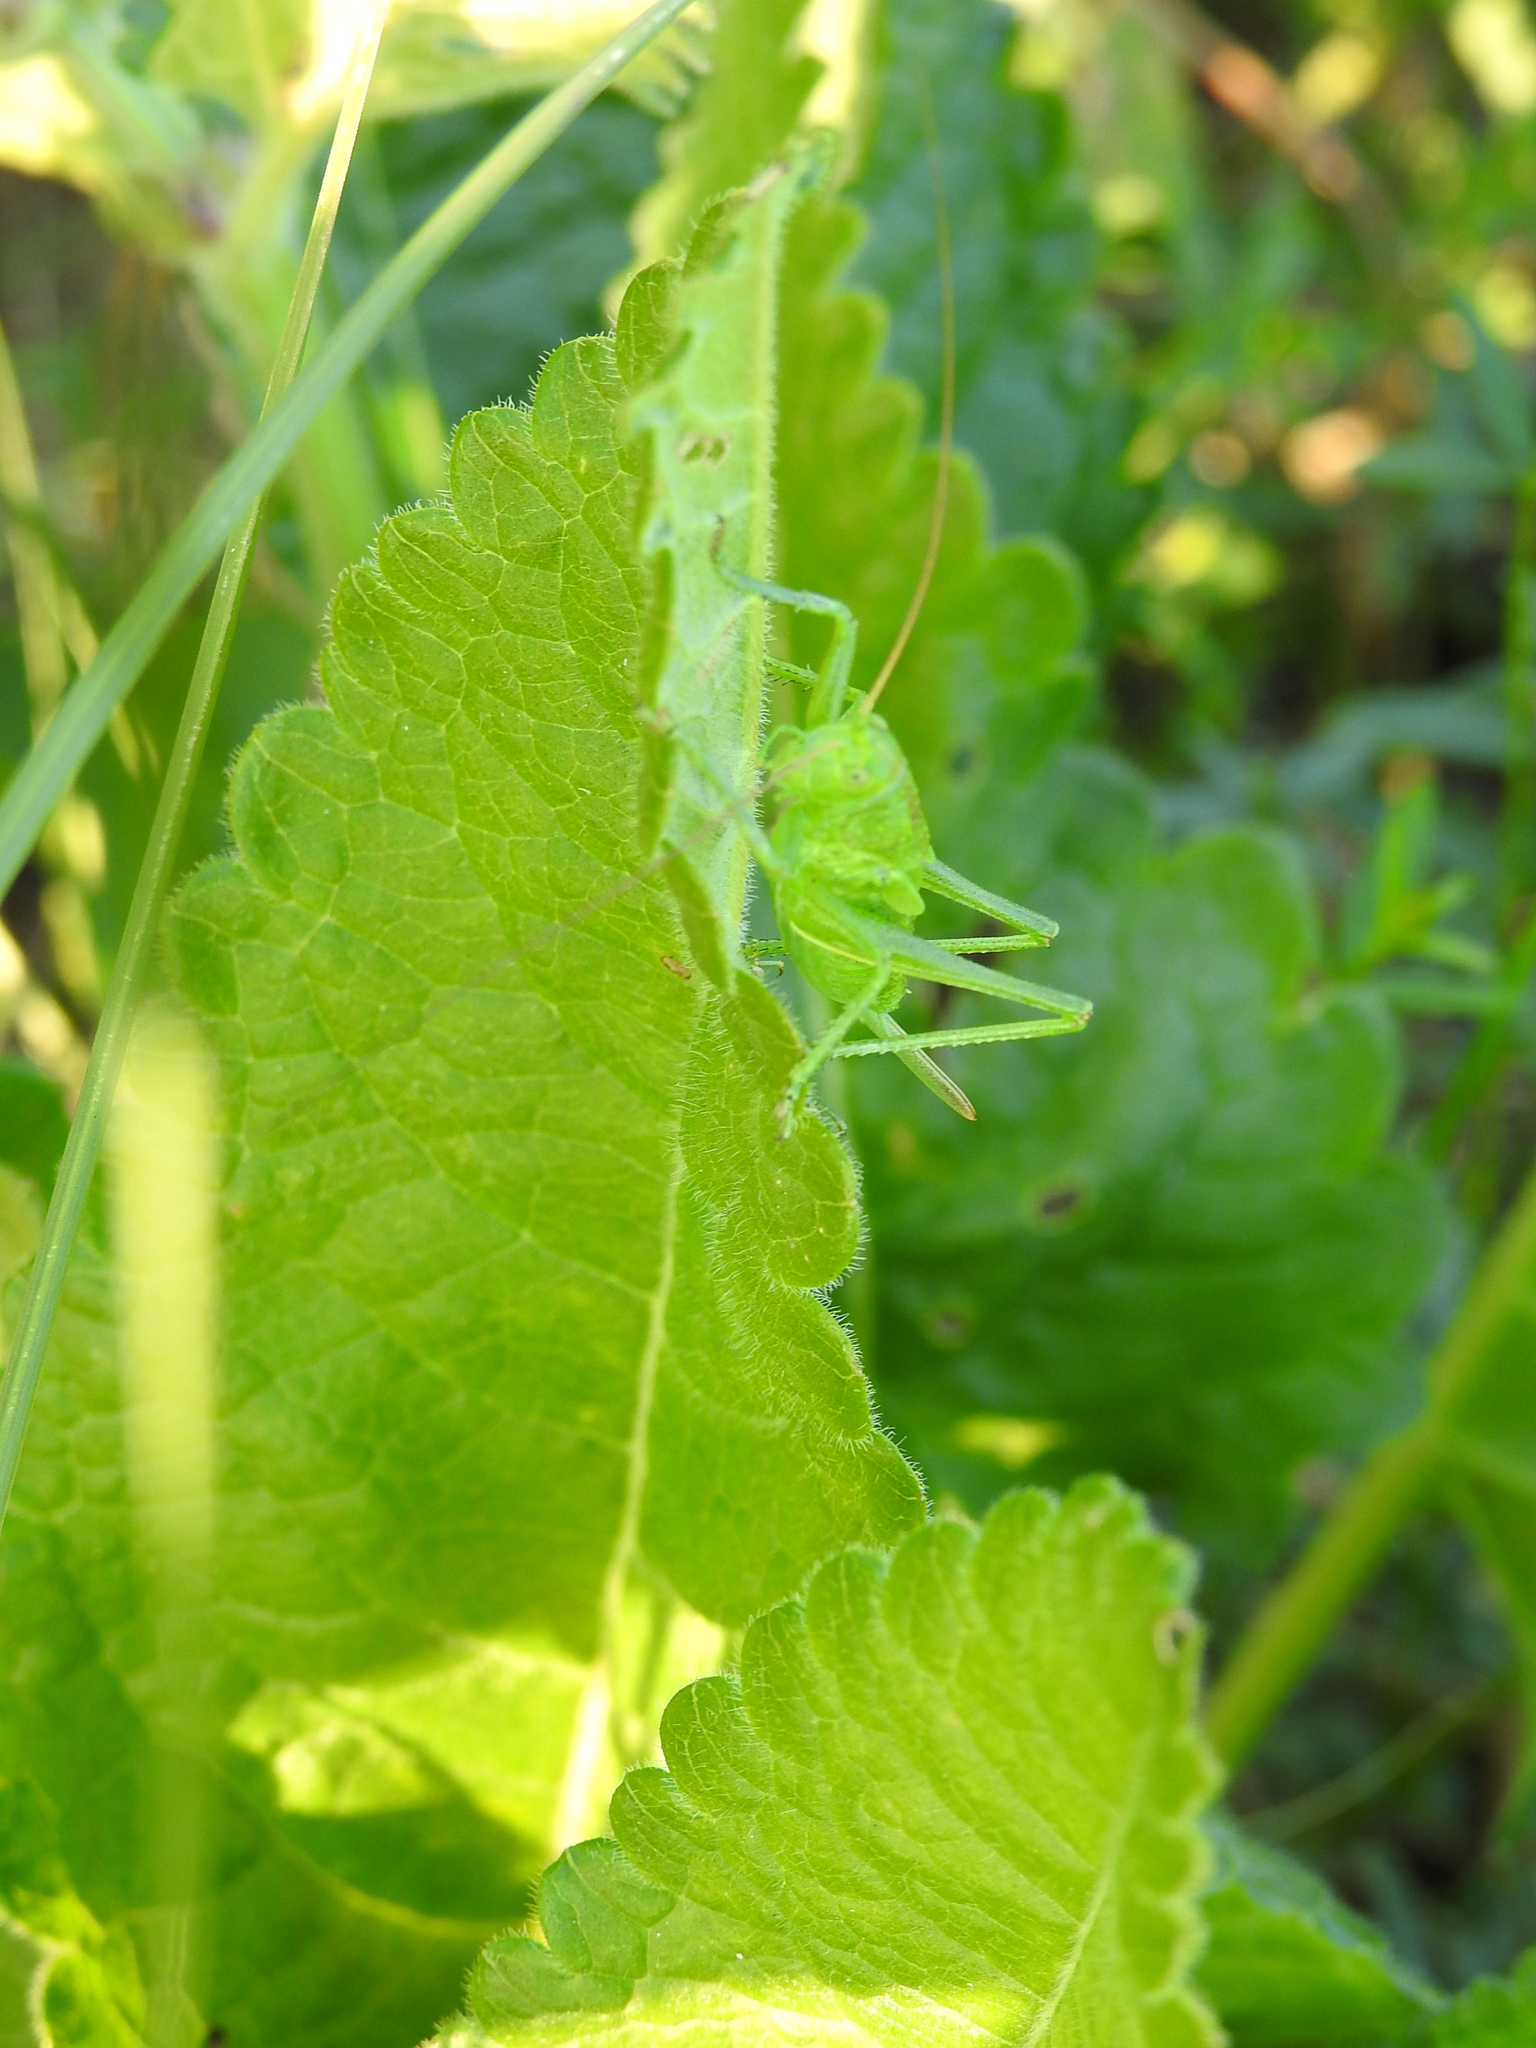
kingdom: Animalia
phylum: Arthropoda
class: Insecta
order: Orthoptera
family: Tettigoniidae
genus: Tettigonia
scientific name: Tettigonia cantans
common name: Upland green bush-cricket
